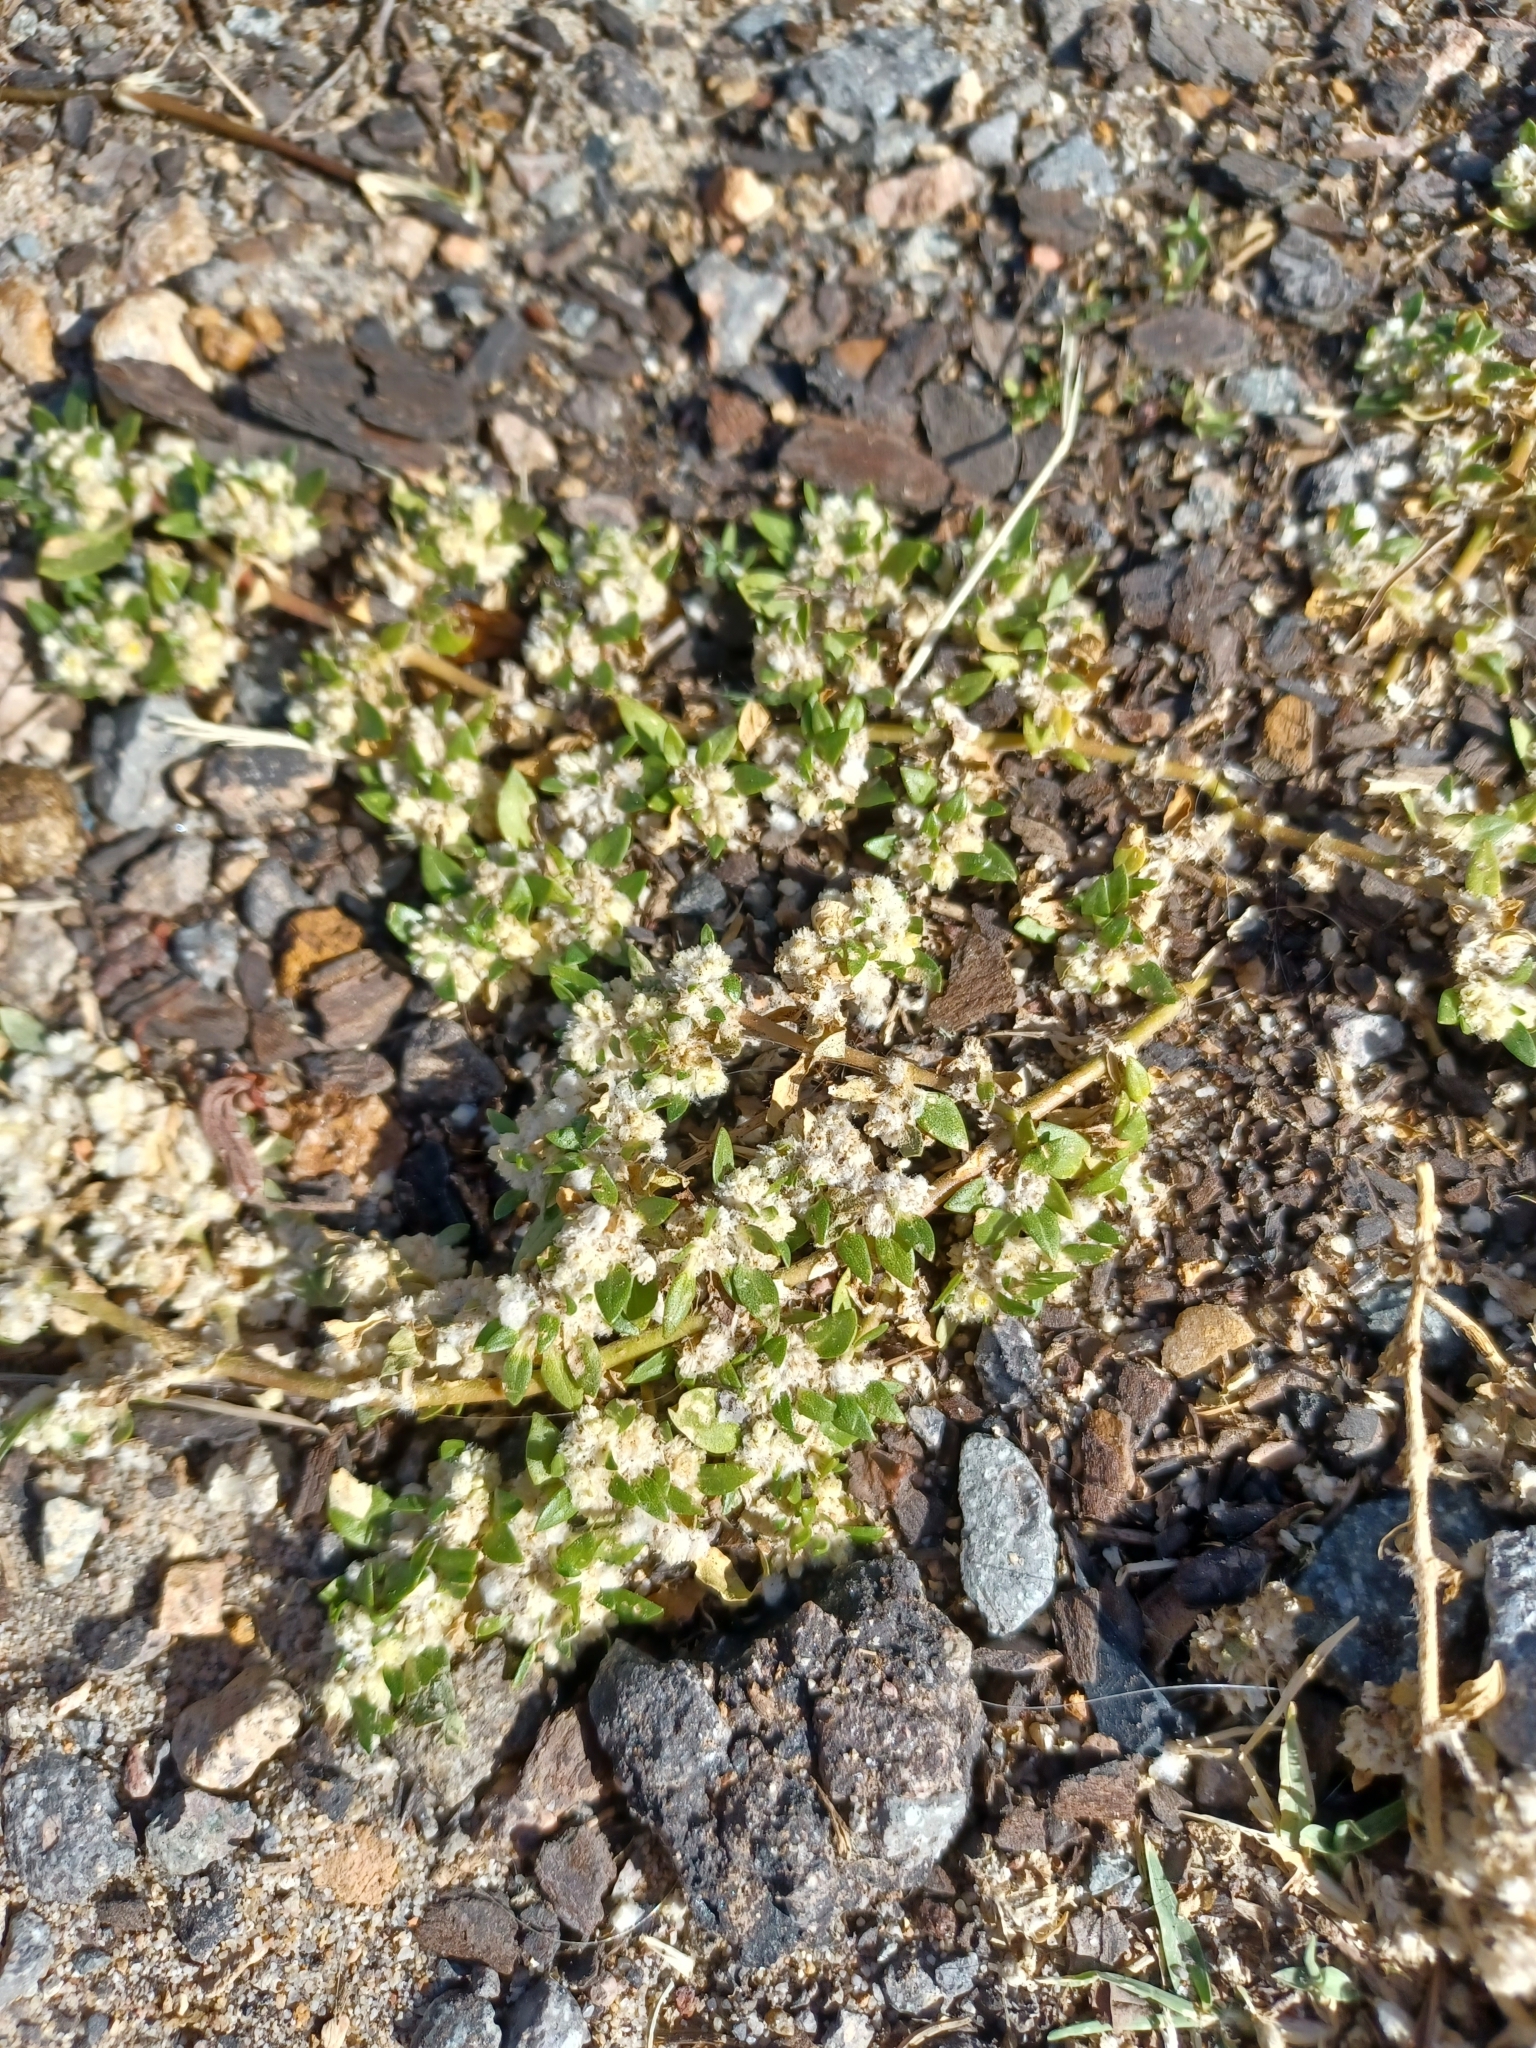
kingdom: Plantae
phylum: Tracheophyta
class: Magnoliopsida
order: Caryophyllales
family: Amaranthaceae
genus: Guilleminea
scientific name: Guilleminea densa
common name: Small matweed
